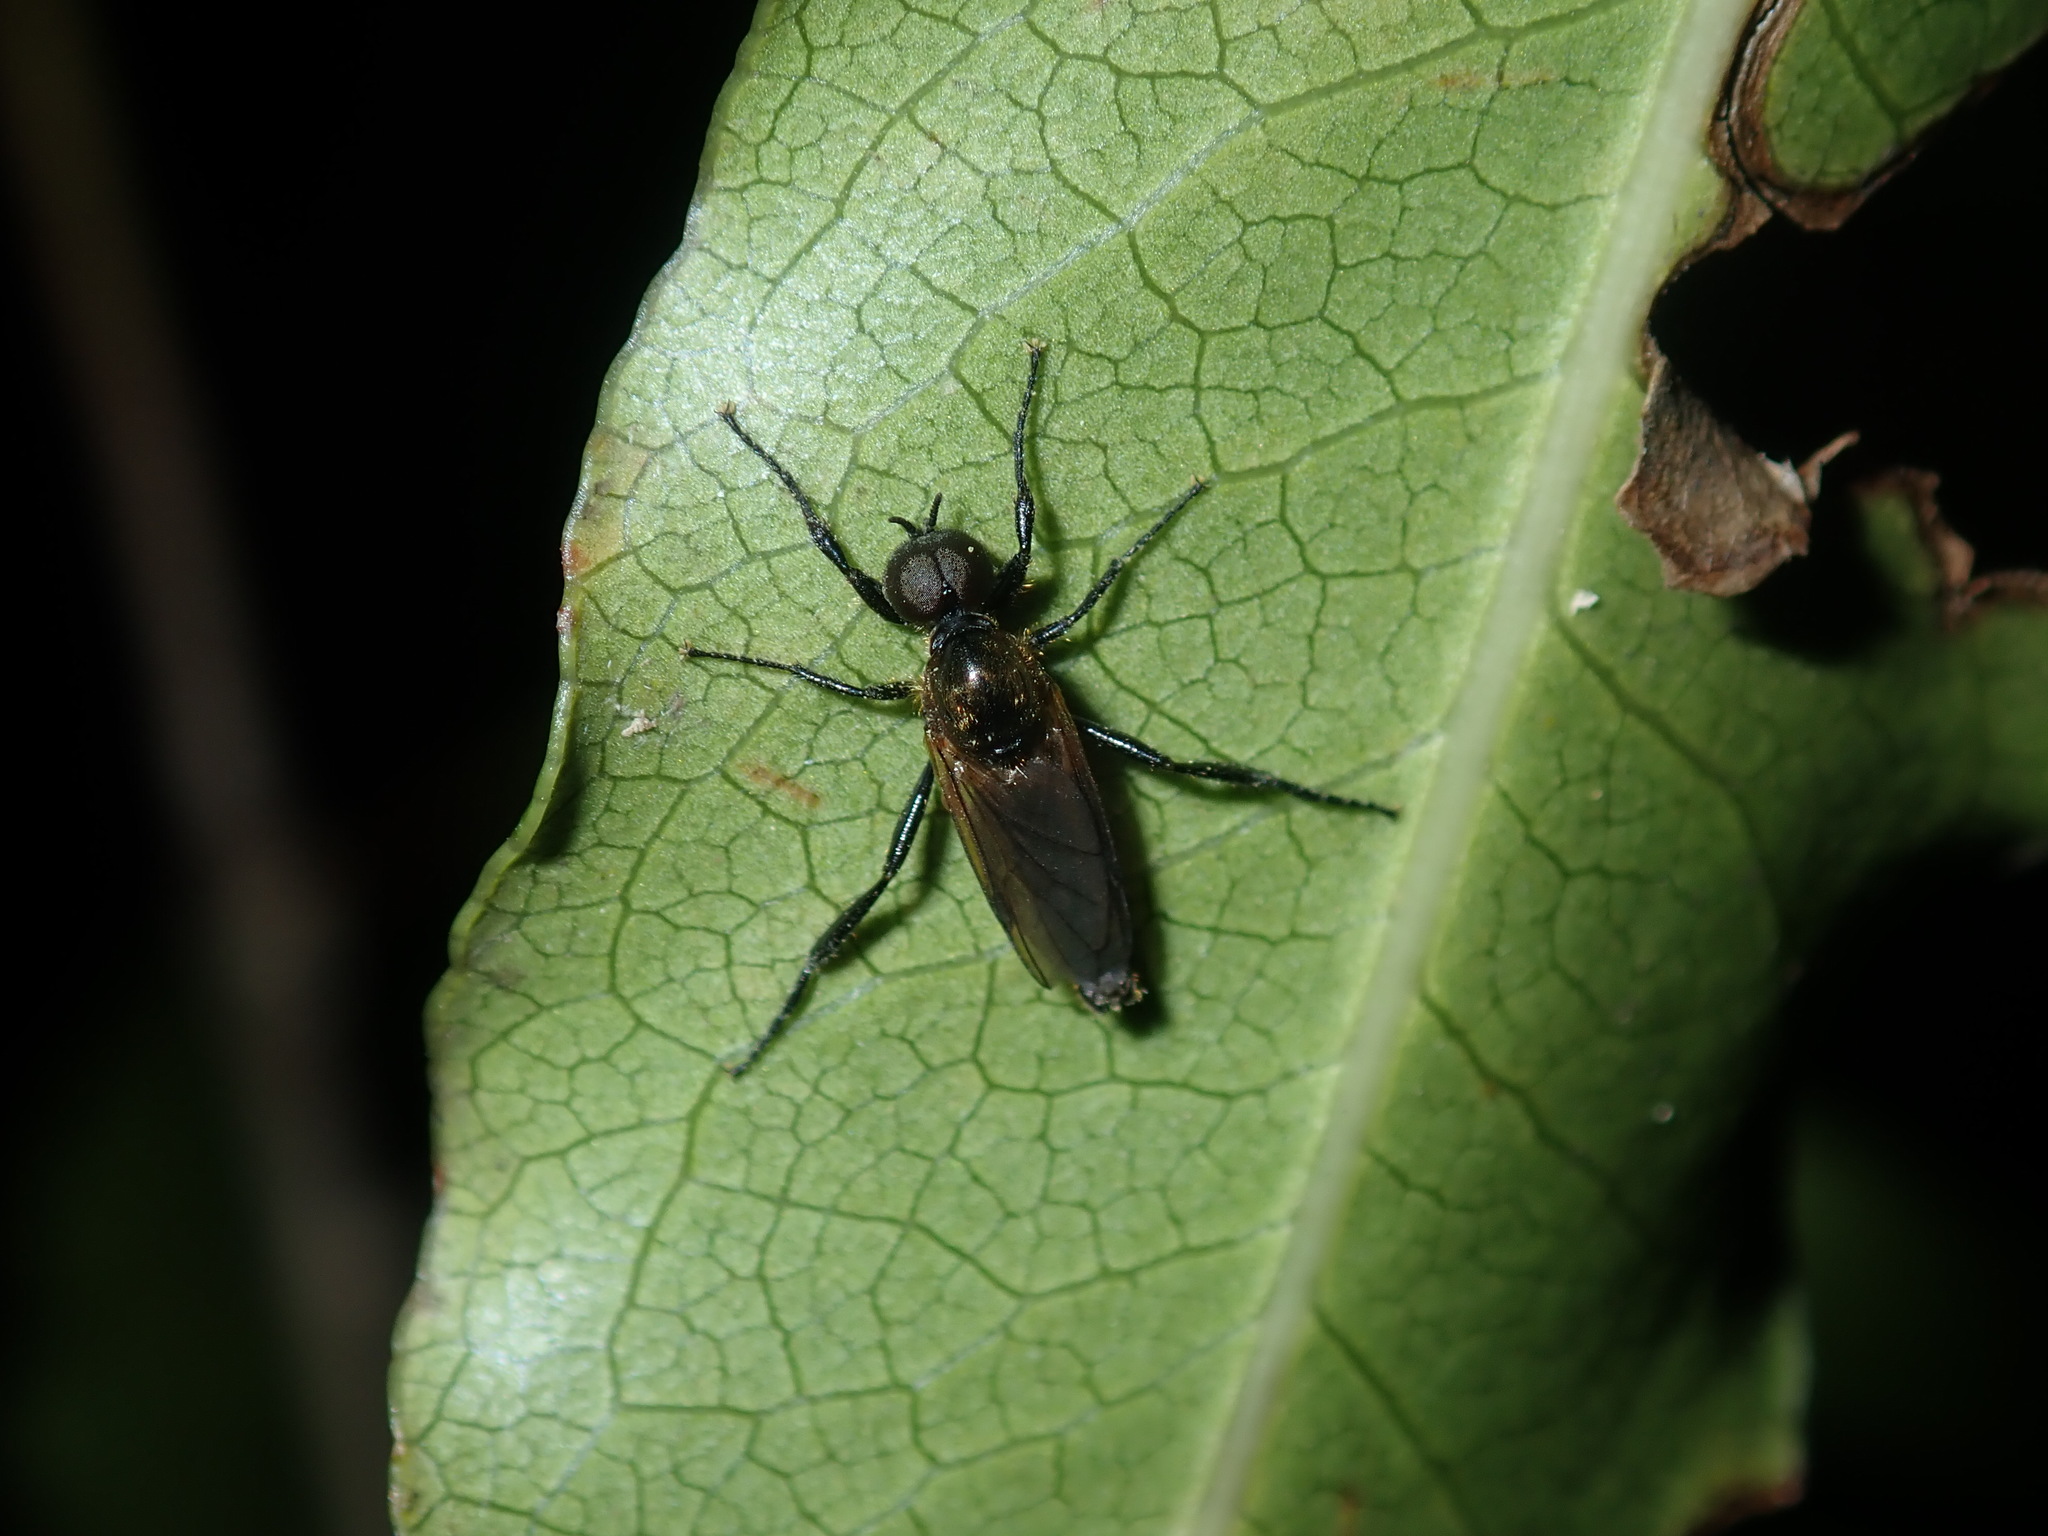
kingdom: Animalia
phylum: Arthropoda
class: Insecta
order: Diptera
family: Bibionidae
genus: Bibio
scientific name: Bibio imitator
